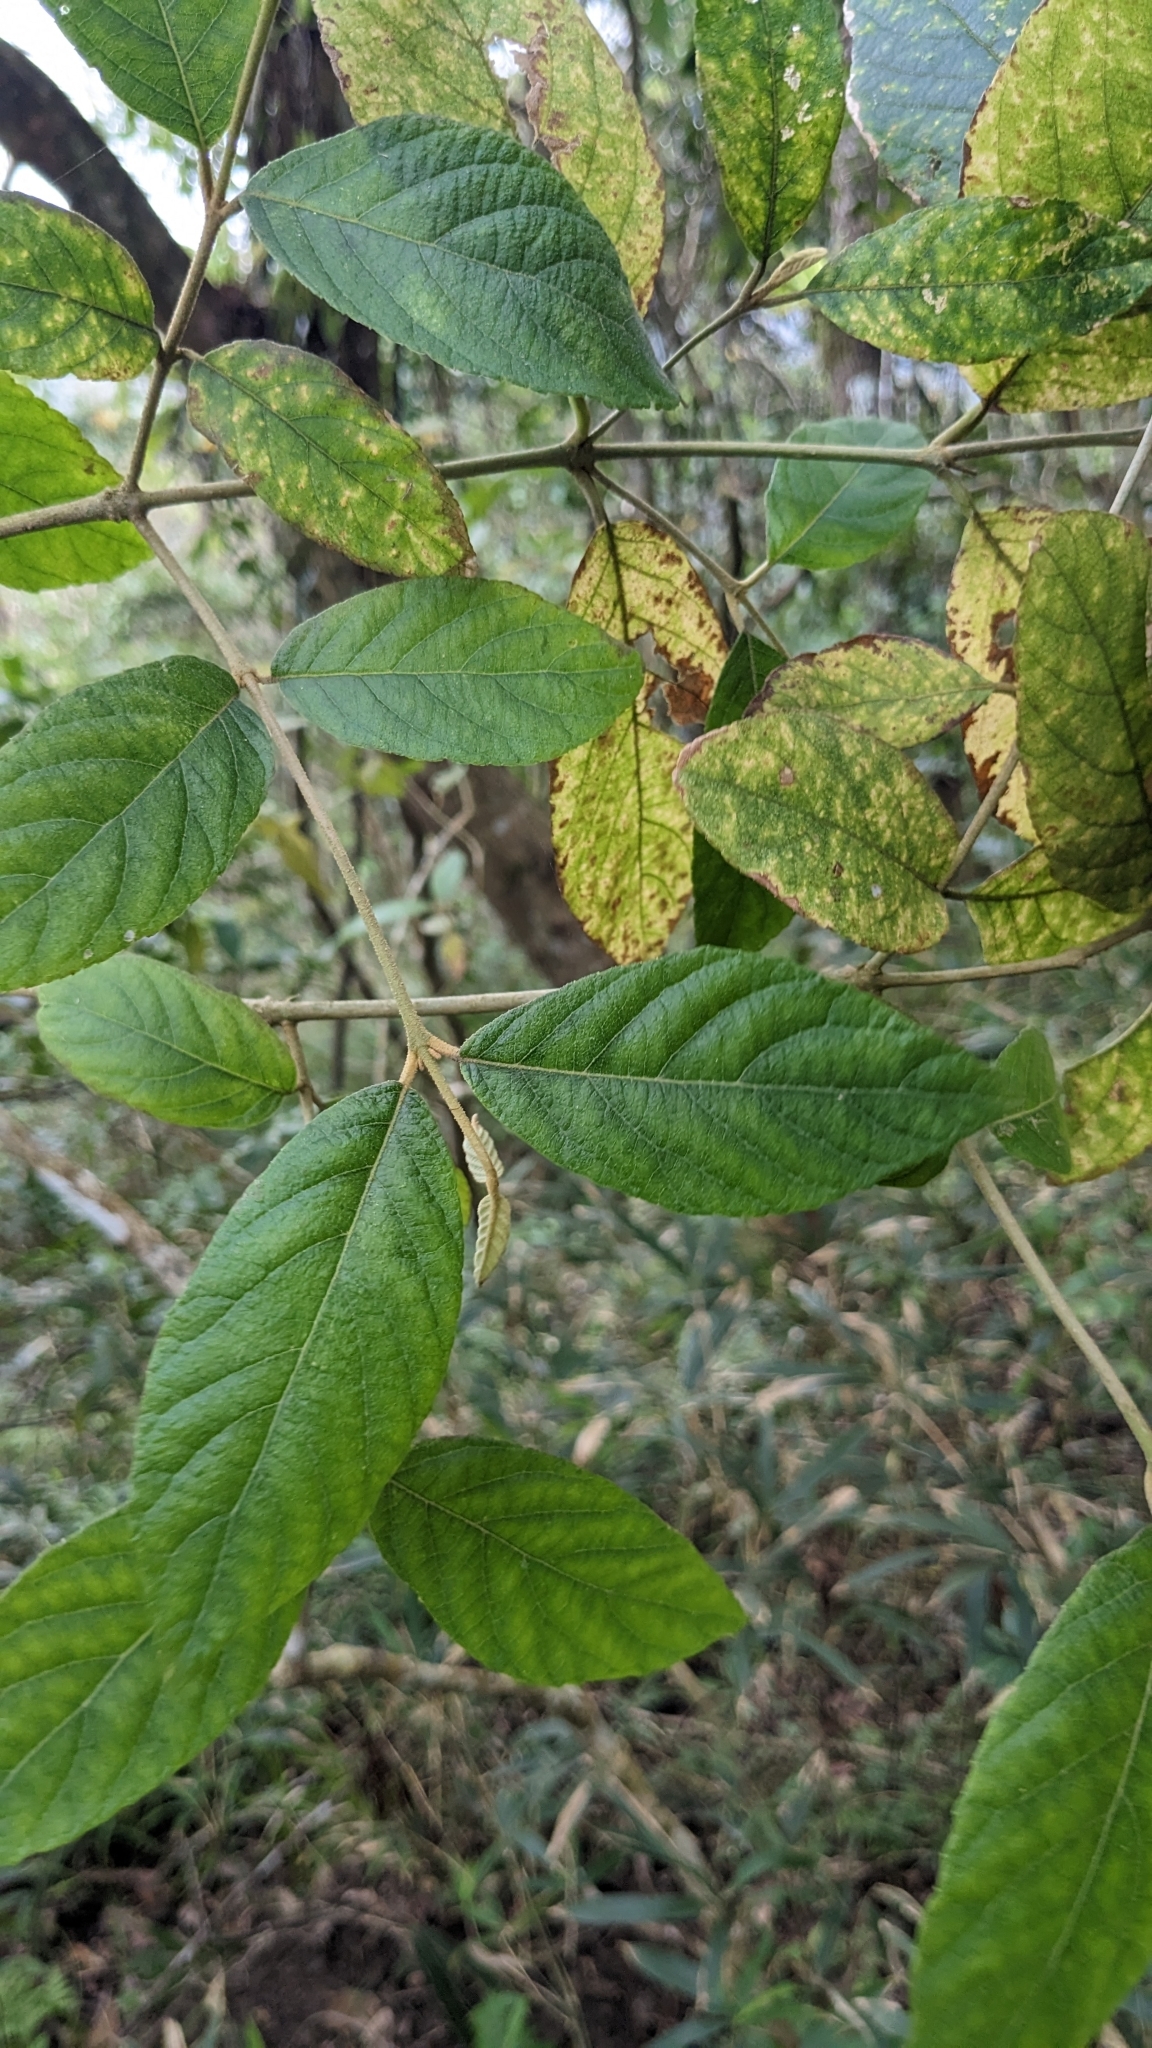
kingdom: Plantae
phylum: Tracheophyta
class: Magnoliopsida
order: Lamiales
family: Lamiaceae
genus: Callicarpa
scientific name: Callicarpa pedunculata
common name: Velvetleaf
